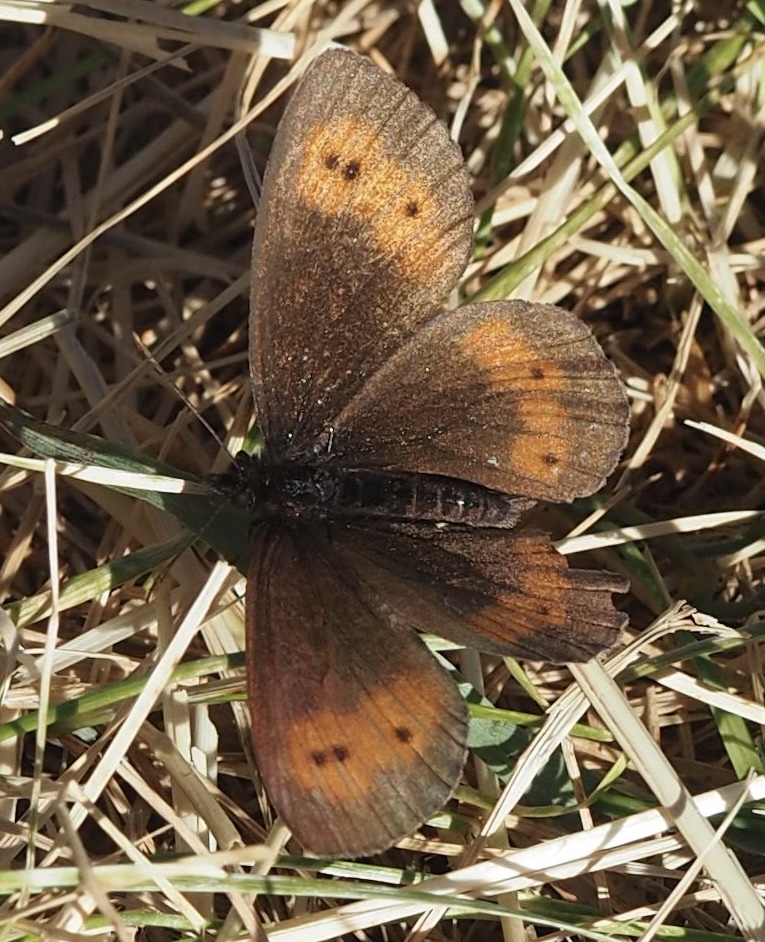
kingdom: Animalia
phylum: Arthropoda
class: Insecta
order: Lepidoptera
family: Nymphalidae
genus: Erebia
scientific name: Erebia euryale
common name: Large ringlet
